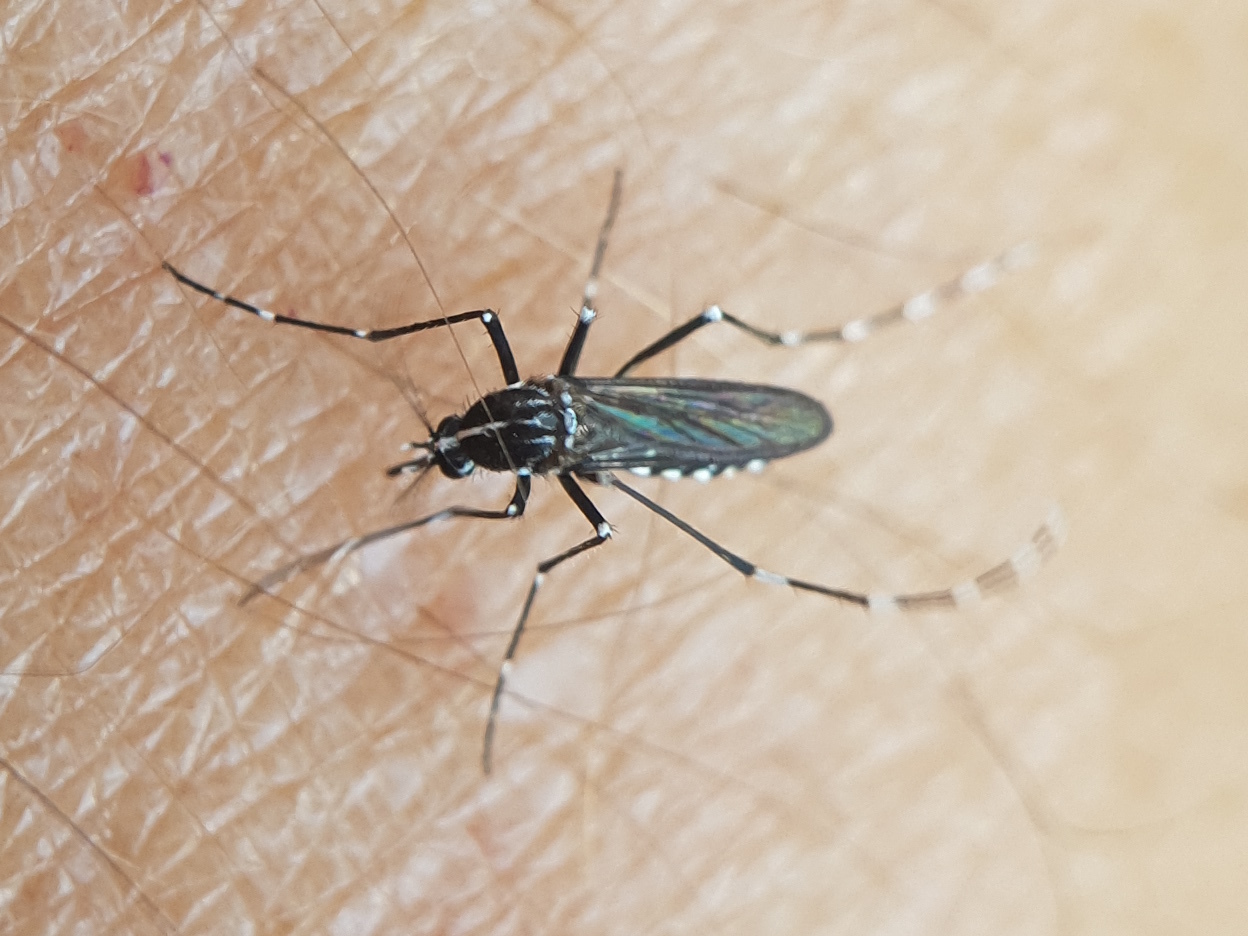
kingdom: Animalia
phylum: Arthropoda
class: Insecta
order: Diptera
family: Culicidae
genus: Aedes
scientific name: Aedes albopictus
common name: Tiger mosquito
